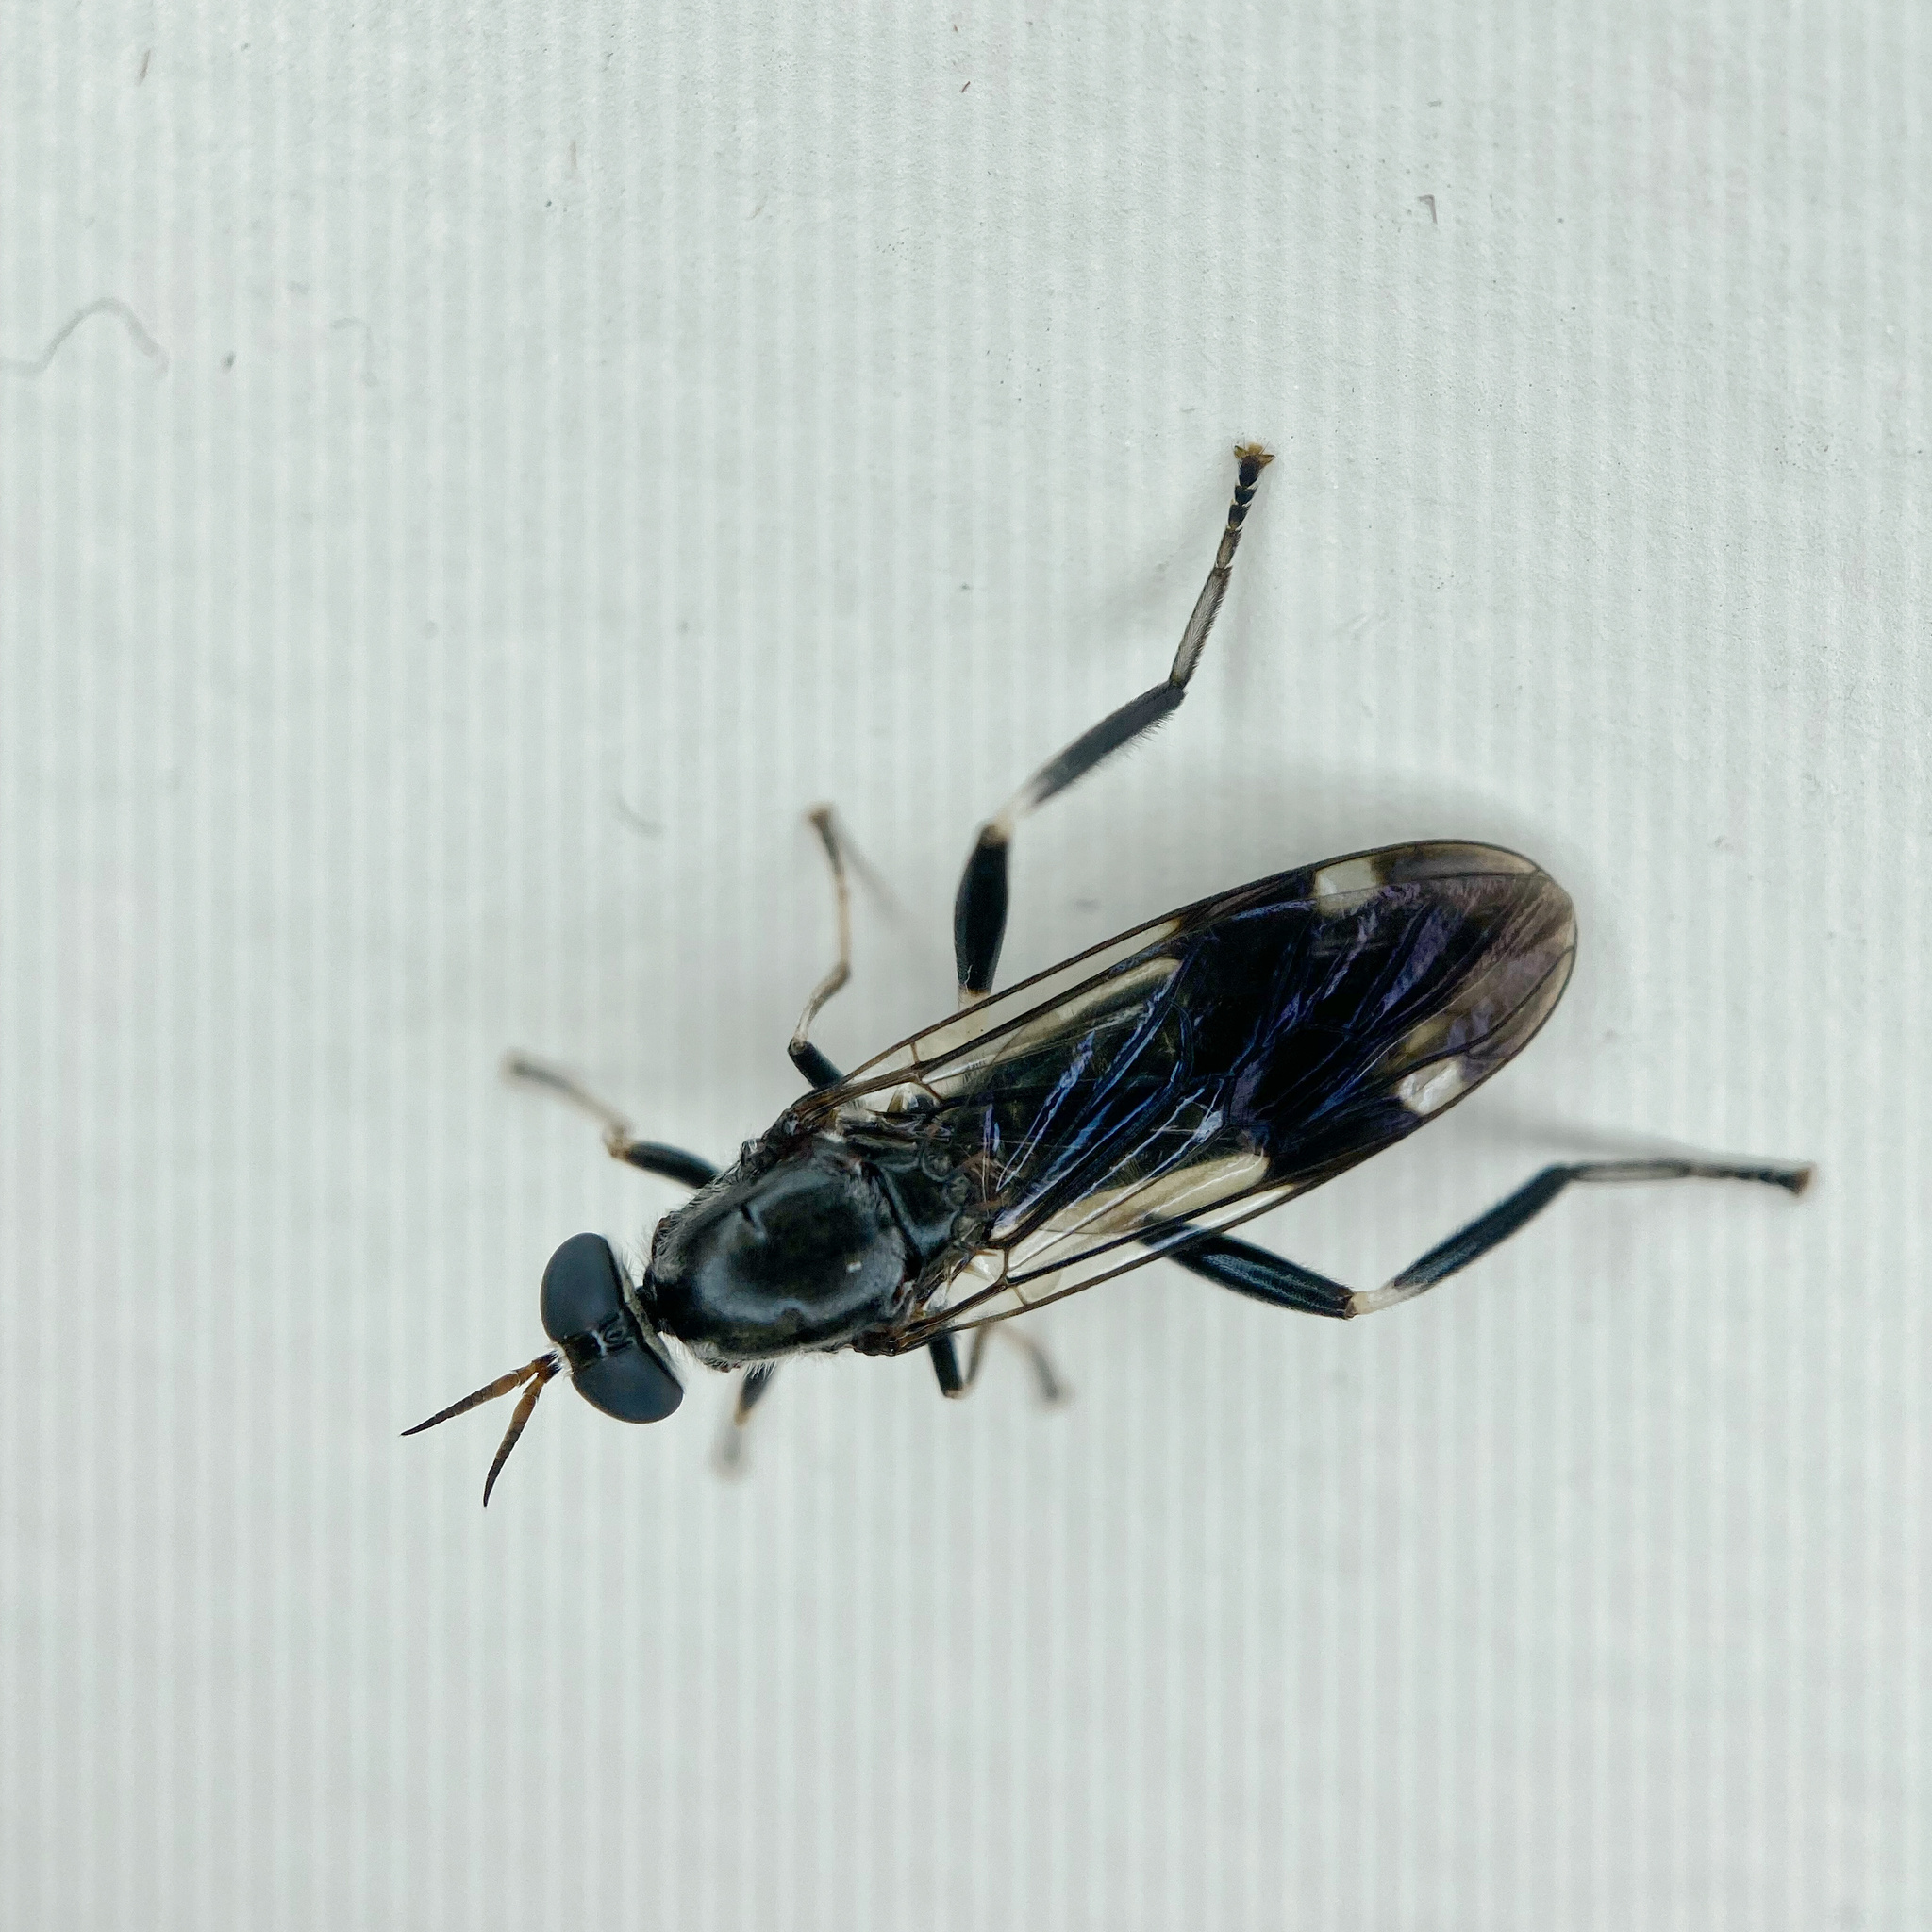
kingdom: Animalia
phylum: Arthropoda
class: Insecta
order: Diptera
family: Stratiomyidae
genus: Exaireta
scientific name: Exaireta spinigera
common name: Blue soldier fly
